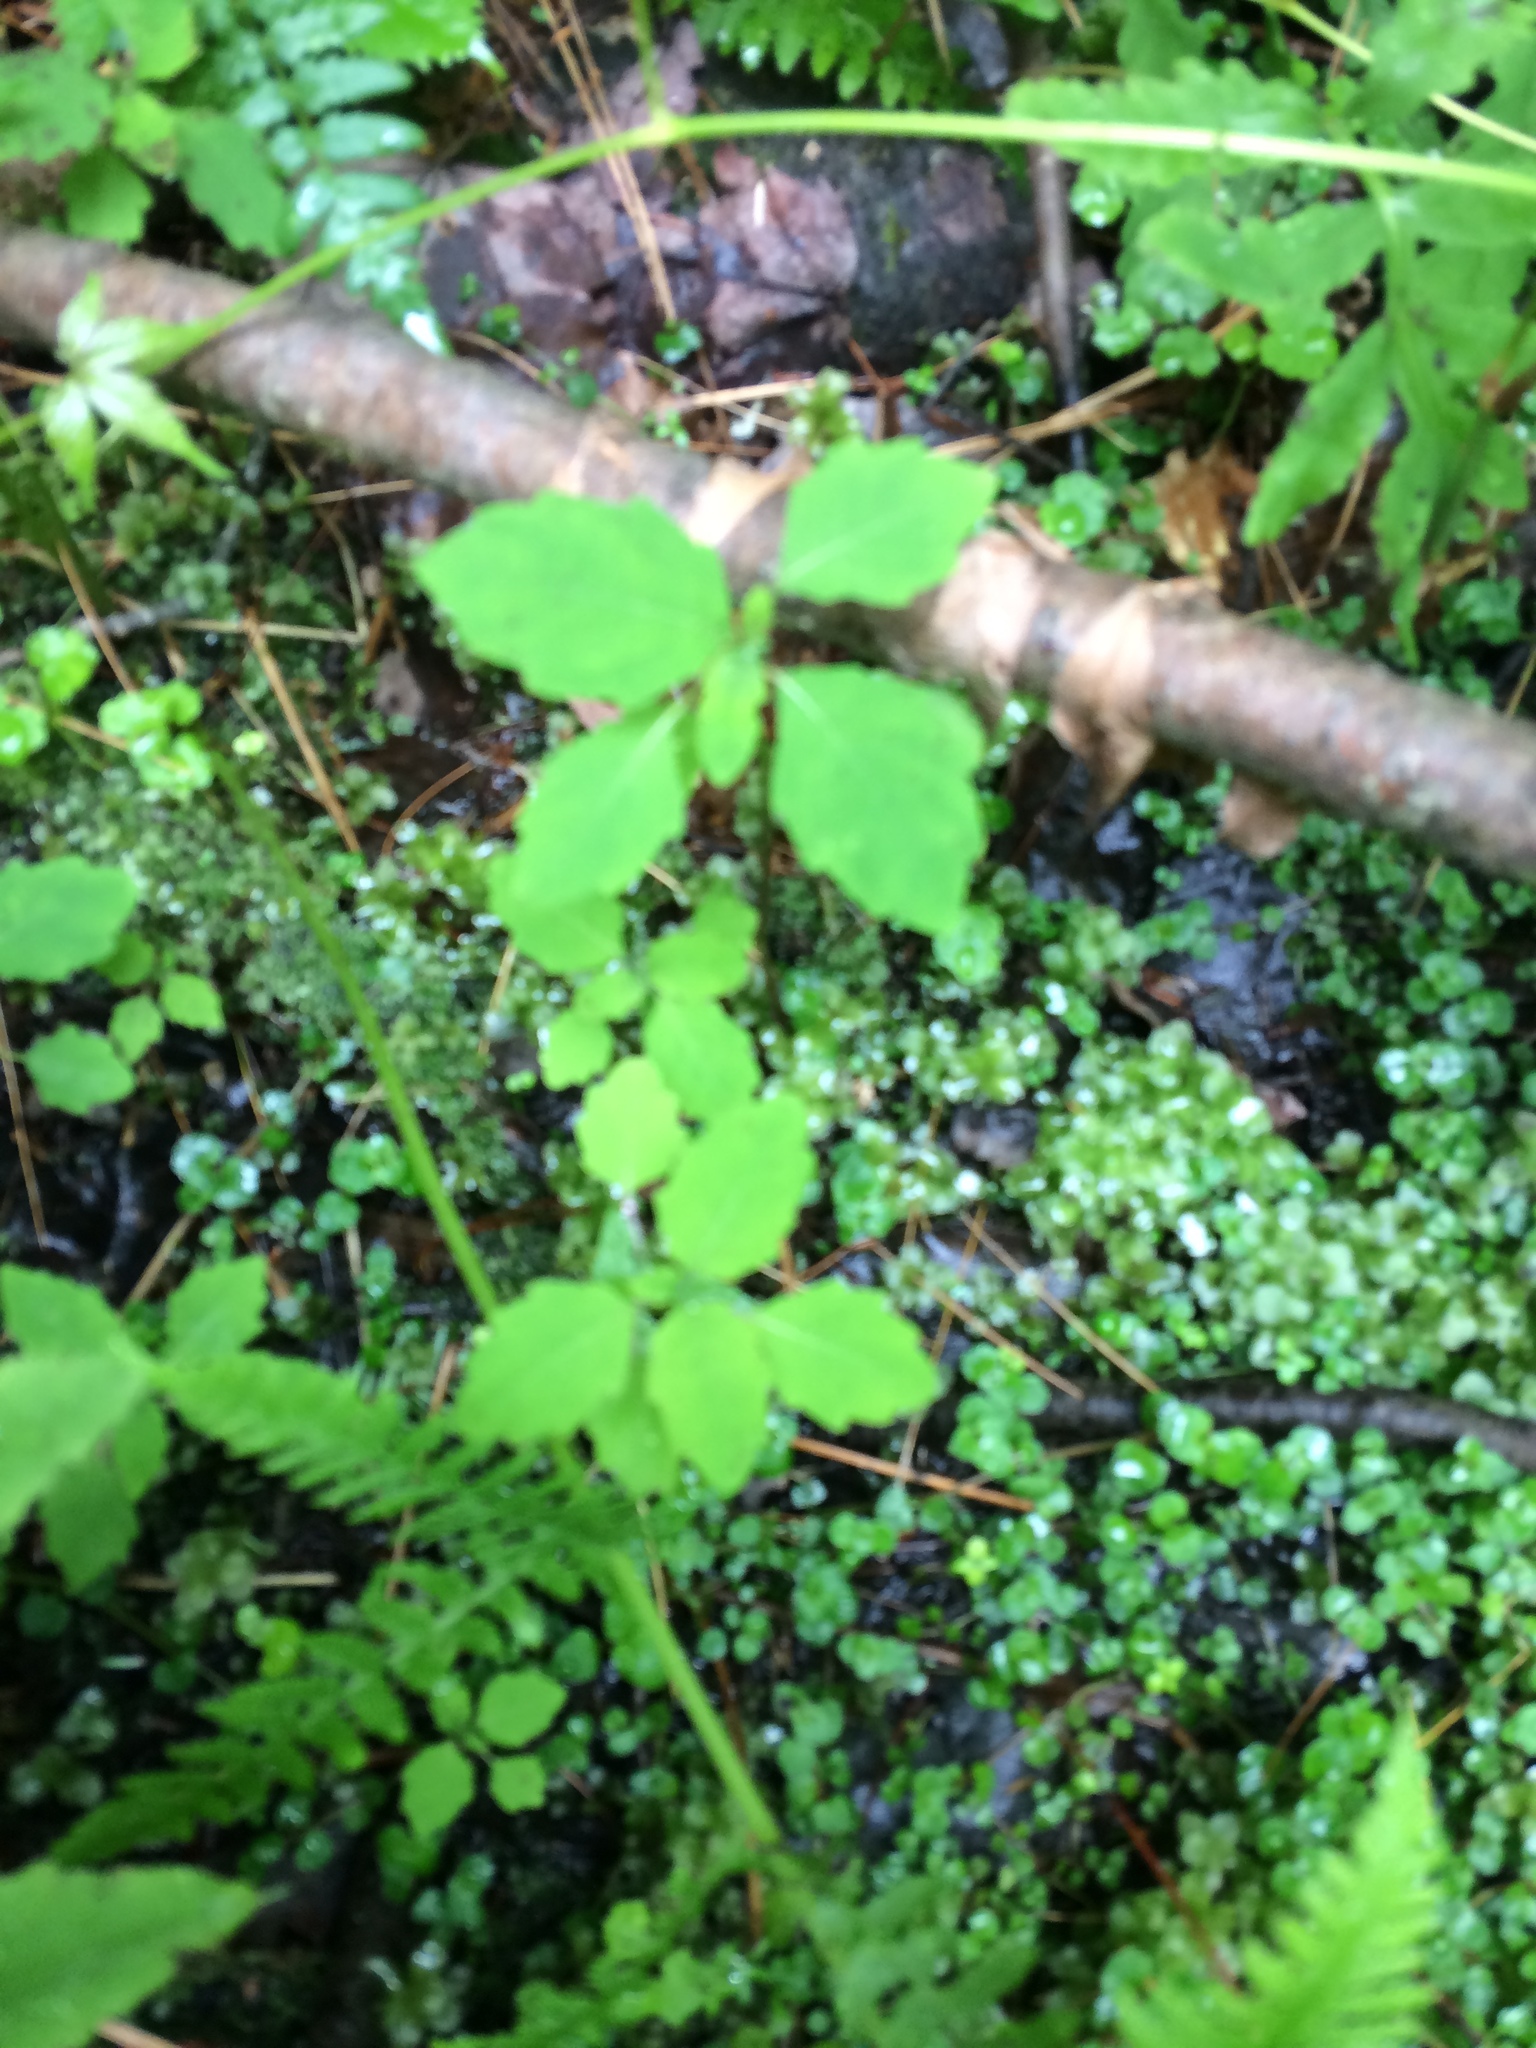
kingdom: Plantae
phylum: Tracheophyta
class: Magnoliopsida
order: Ericales
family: Balsaminaceae
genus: Impatiens
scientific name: Impatiens capensis
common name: Orange balsam
